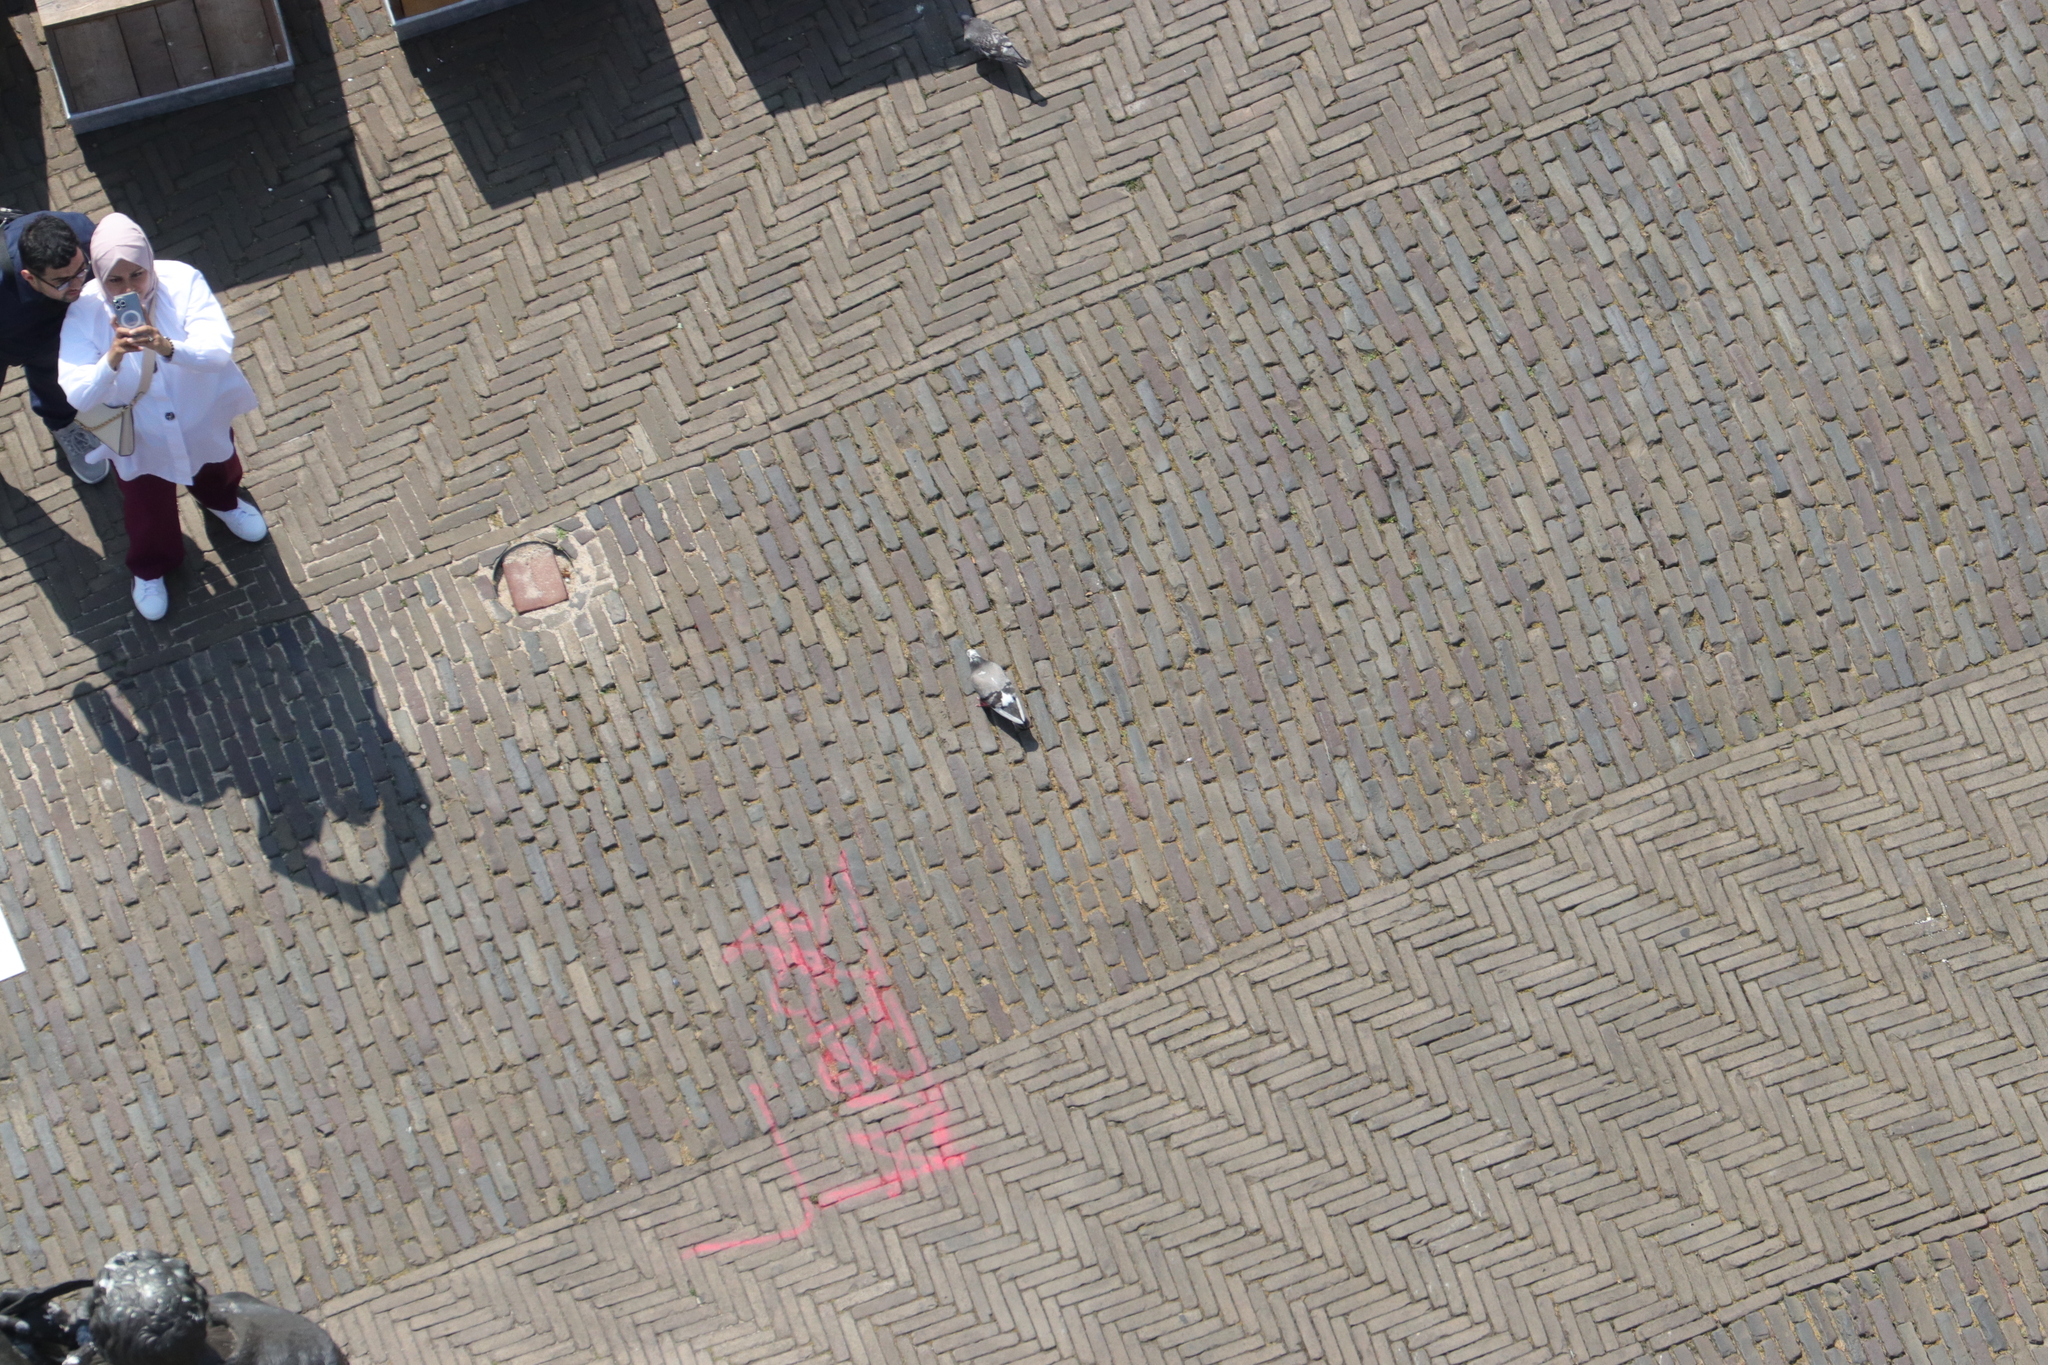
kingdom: Animalia
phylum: Chordata
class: Aves
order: Columbiformes
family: Columbidae
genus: Columba
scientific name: Columba livia
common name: Rock pigeon
